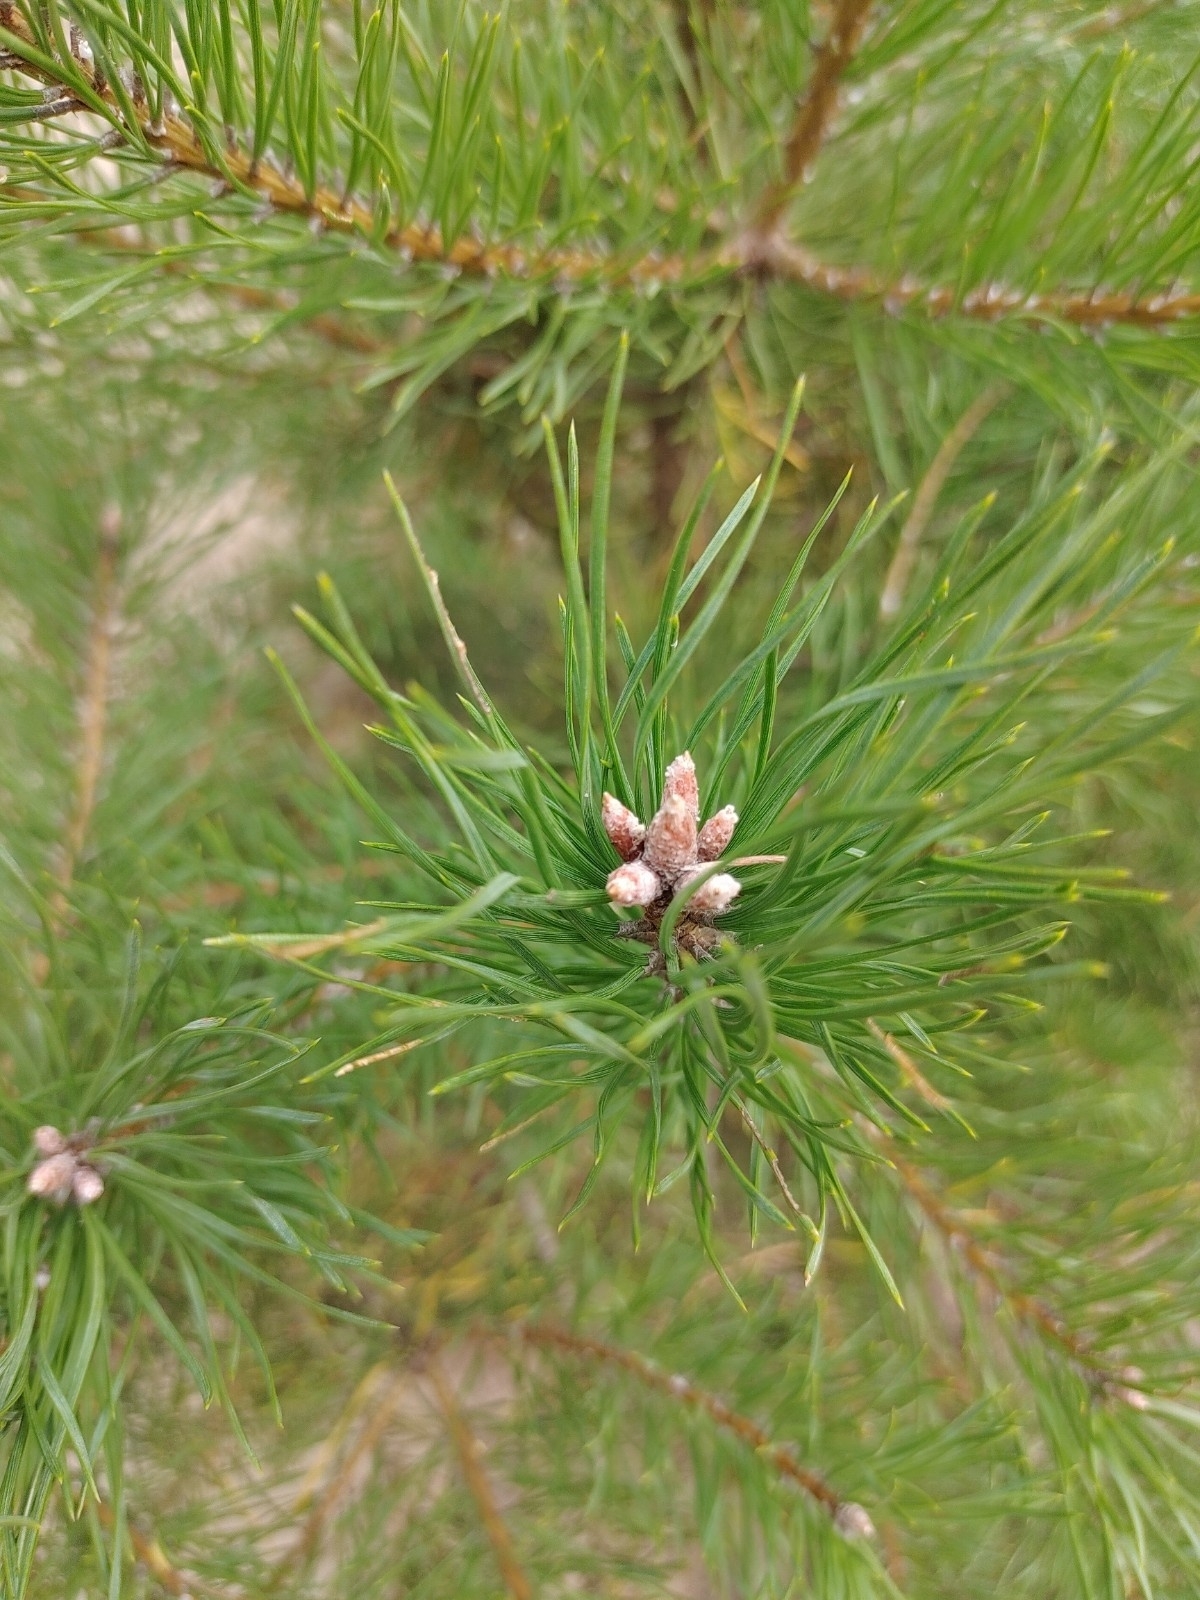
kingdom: Plantae
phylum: Tracheophyta
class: Pinopsida
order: Pinales
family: Pinaceae
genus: Pinus
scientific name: Pinus sylvestris
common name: Scots pine
